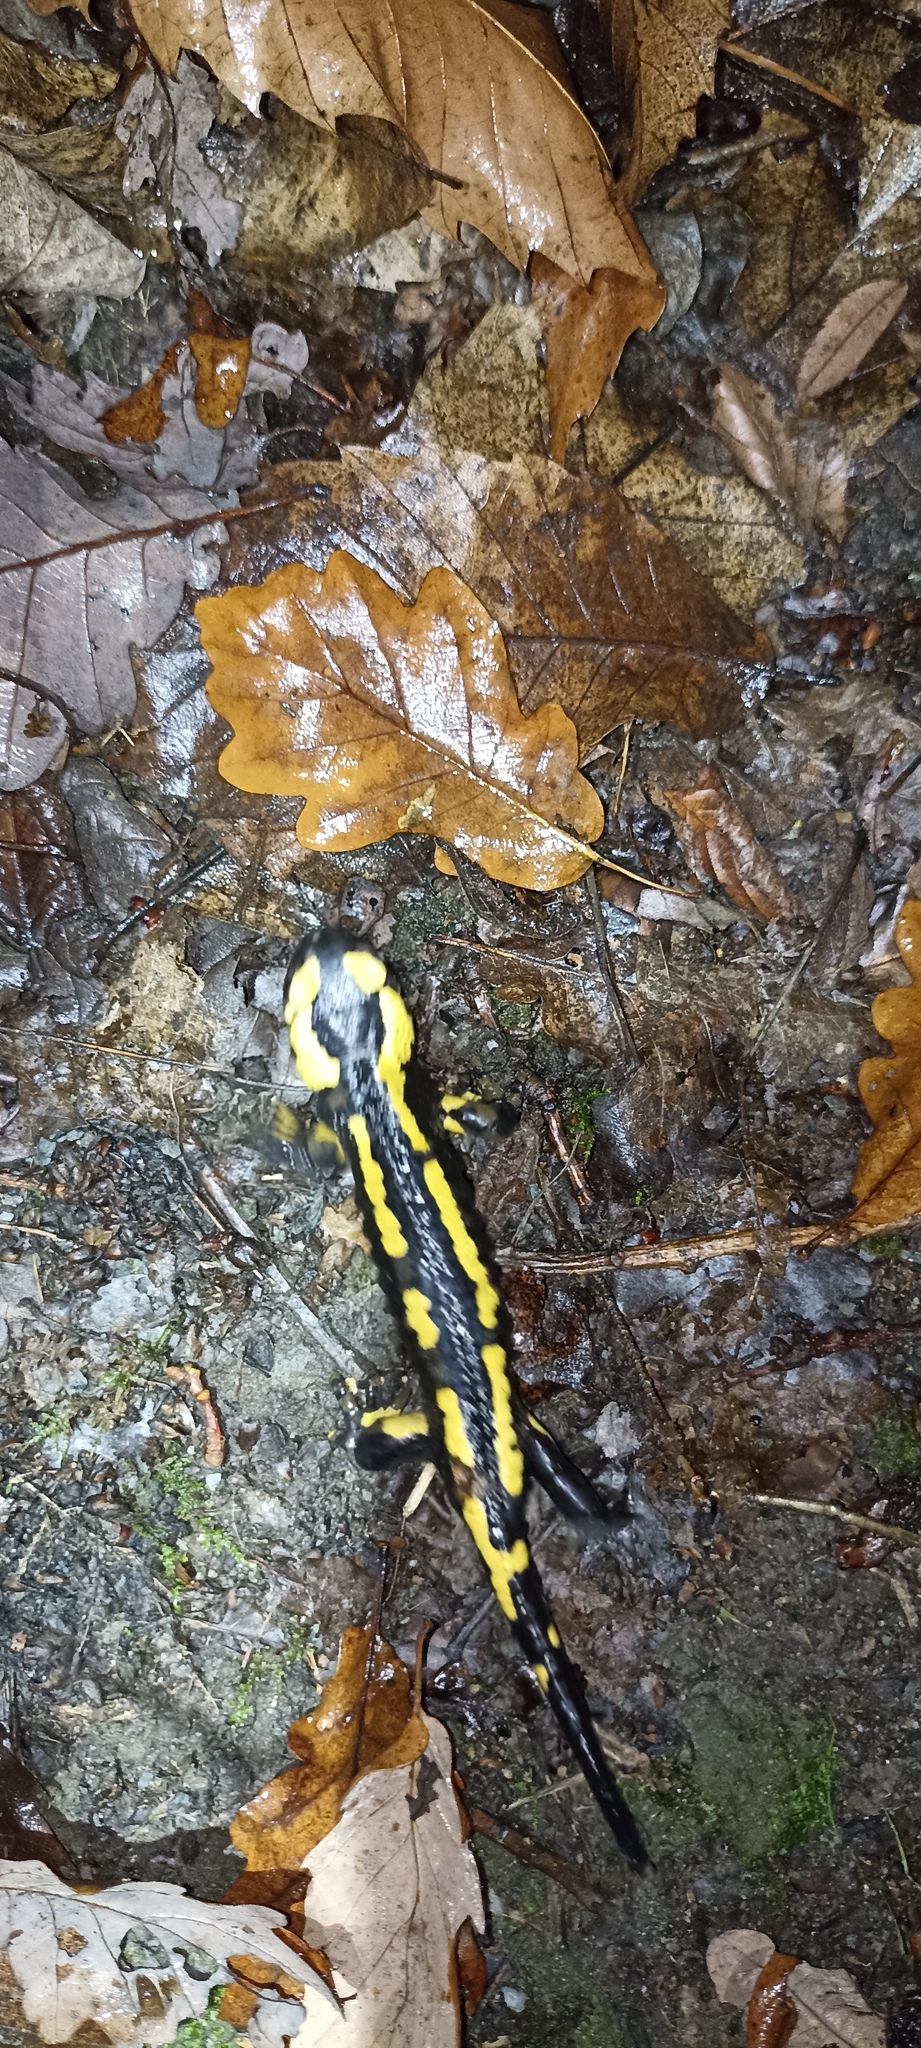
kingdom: Animalia
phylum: Chordata
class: Amphibia
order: Caudata
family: Salamandridae
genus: Salamandra
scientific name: Salamandra salamandra
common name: Fire salamander
